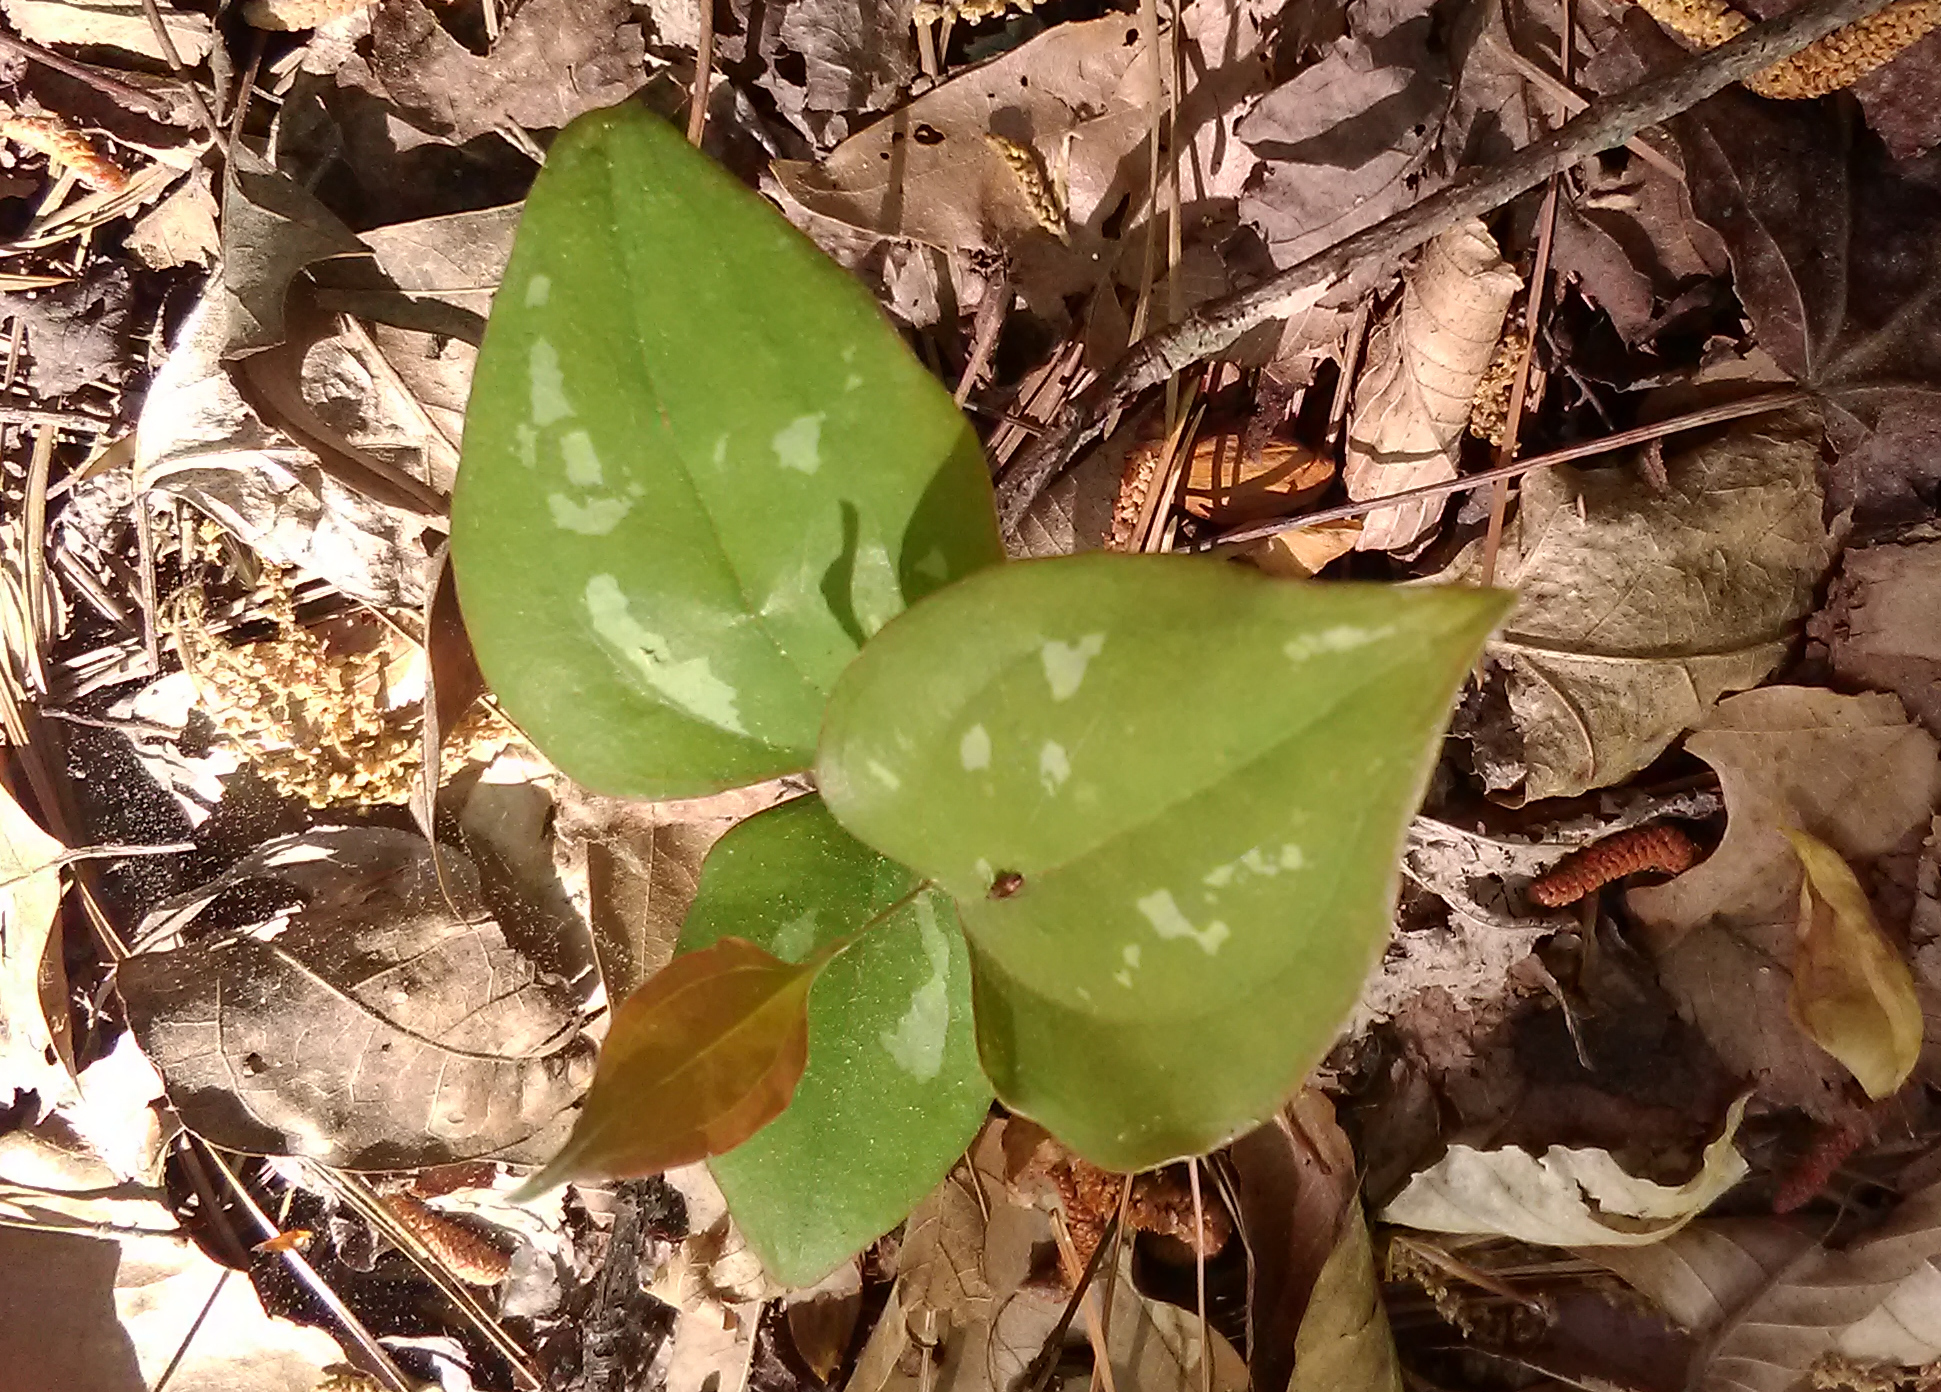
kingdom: Plantae
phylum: Tracheophyta
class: Liliopsida
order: Liliales
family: Smilacaceae
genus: Smilax
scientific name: Smilax glauca
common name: Cat greenbrier
